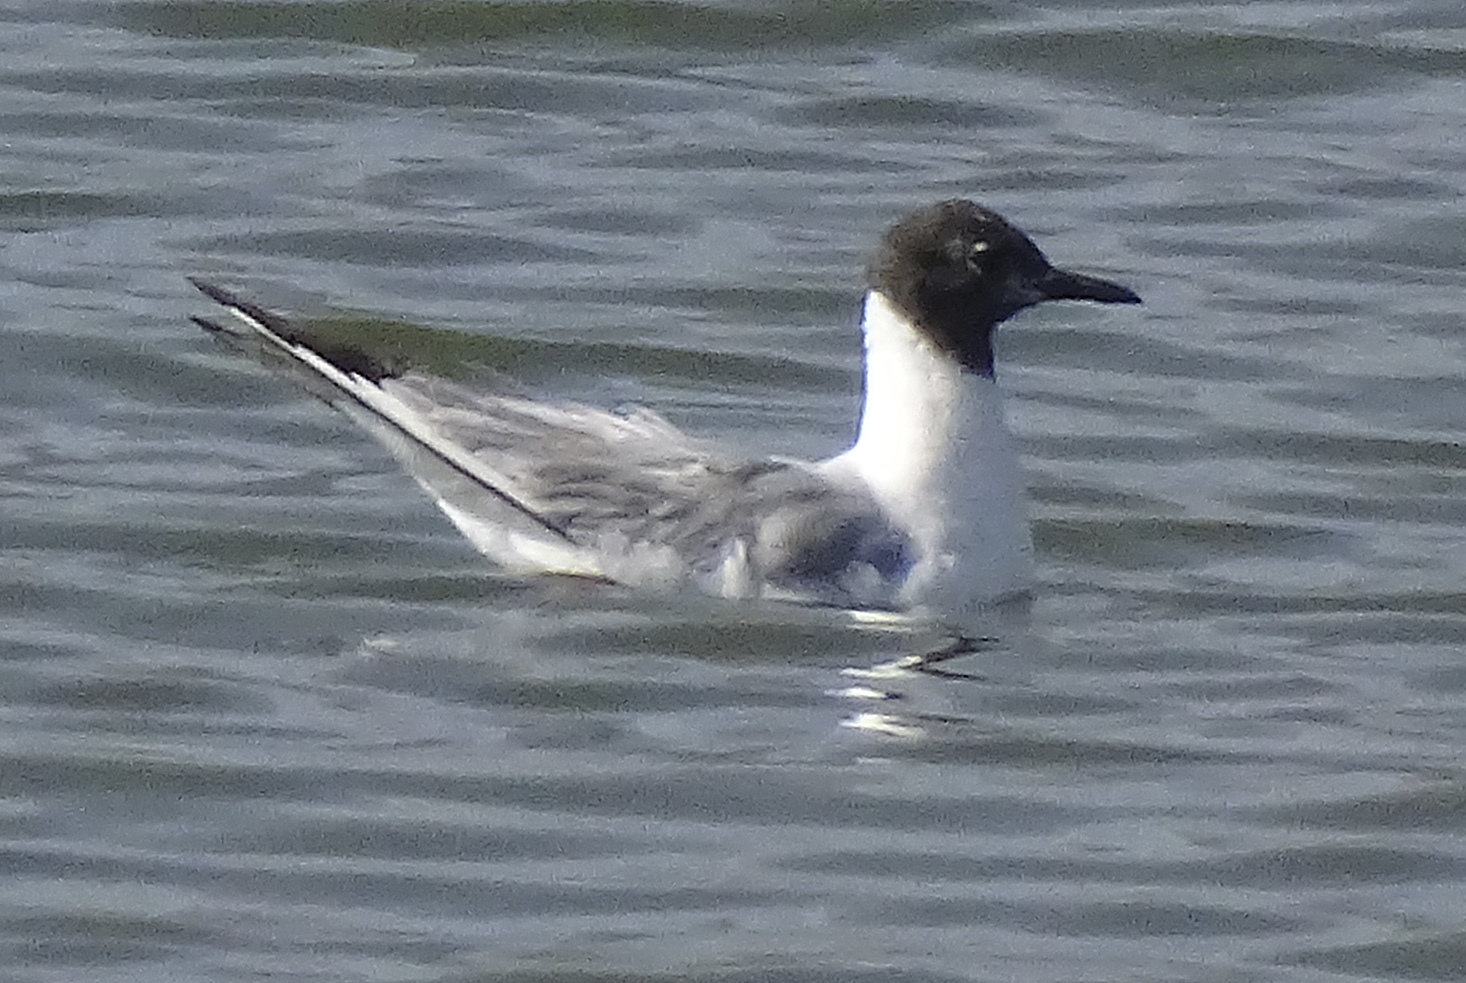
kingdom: Animalia
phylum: Chordata
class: Aves
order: Charadriiformes
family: Laridae
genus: Chroicocephalus
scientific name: Chroicocephalus philadelphia
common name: Bonaparte's gull
